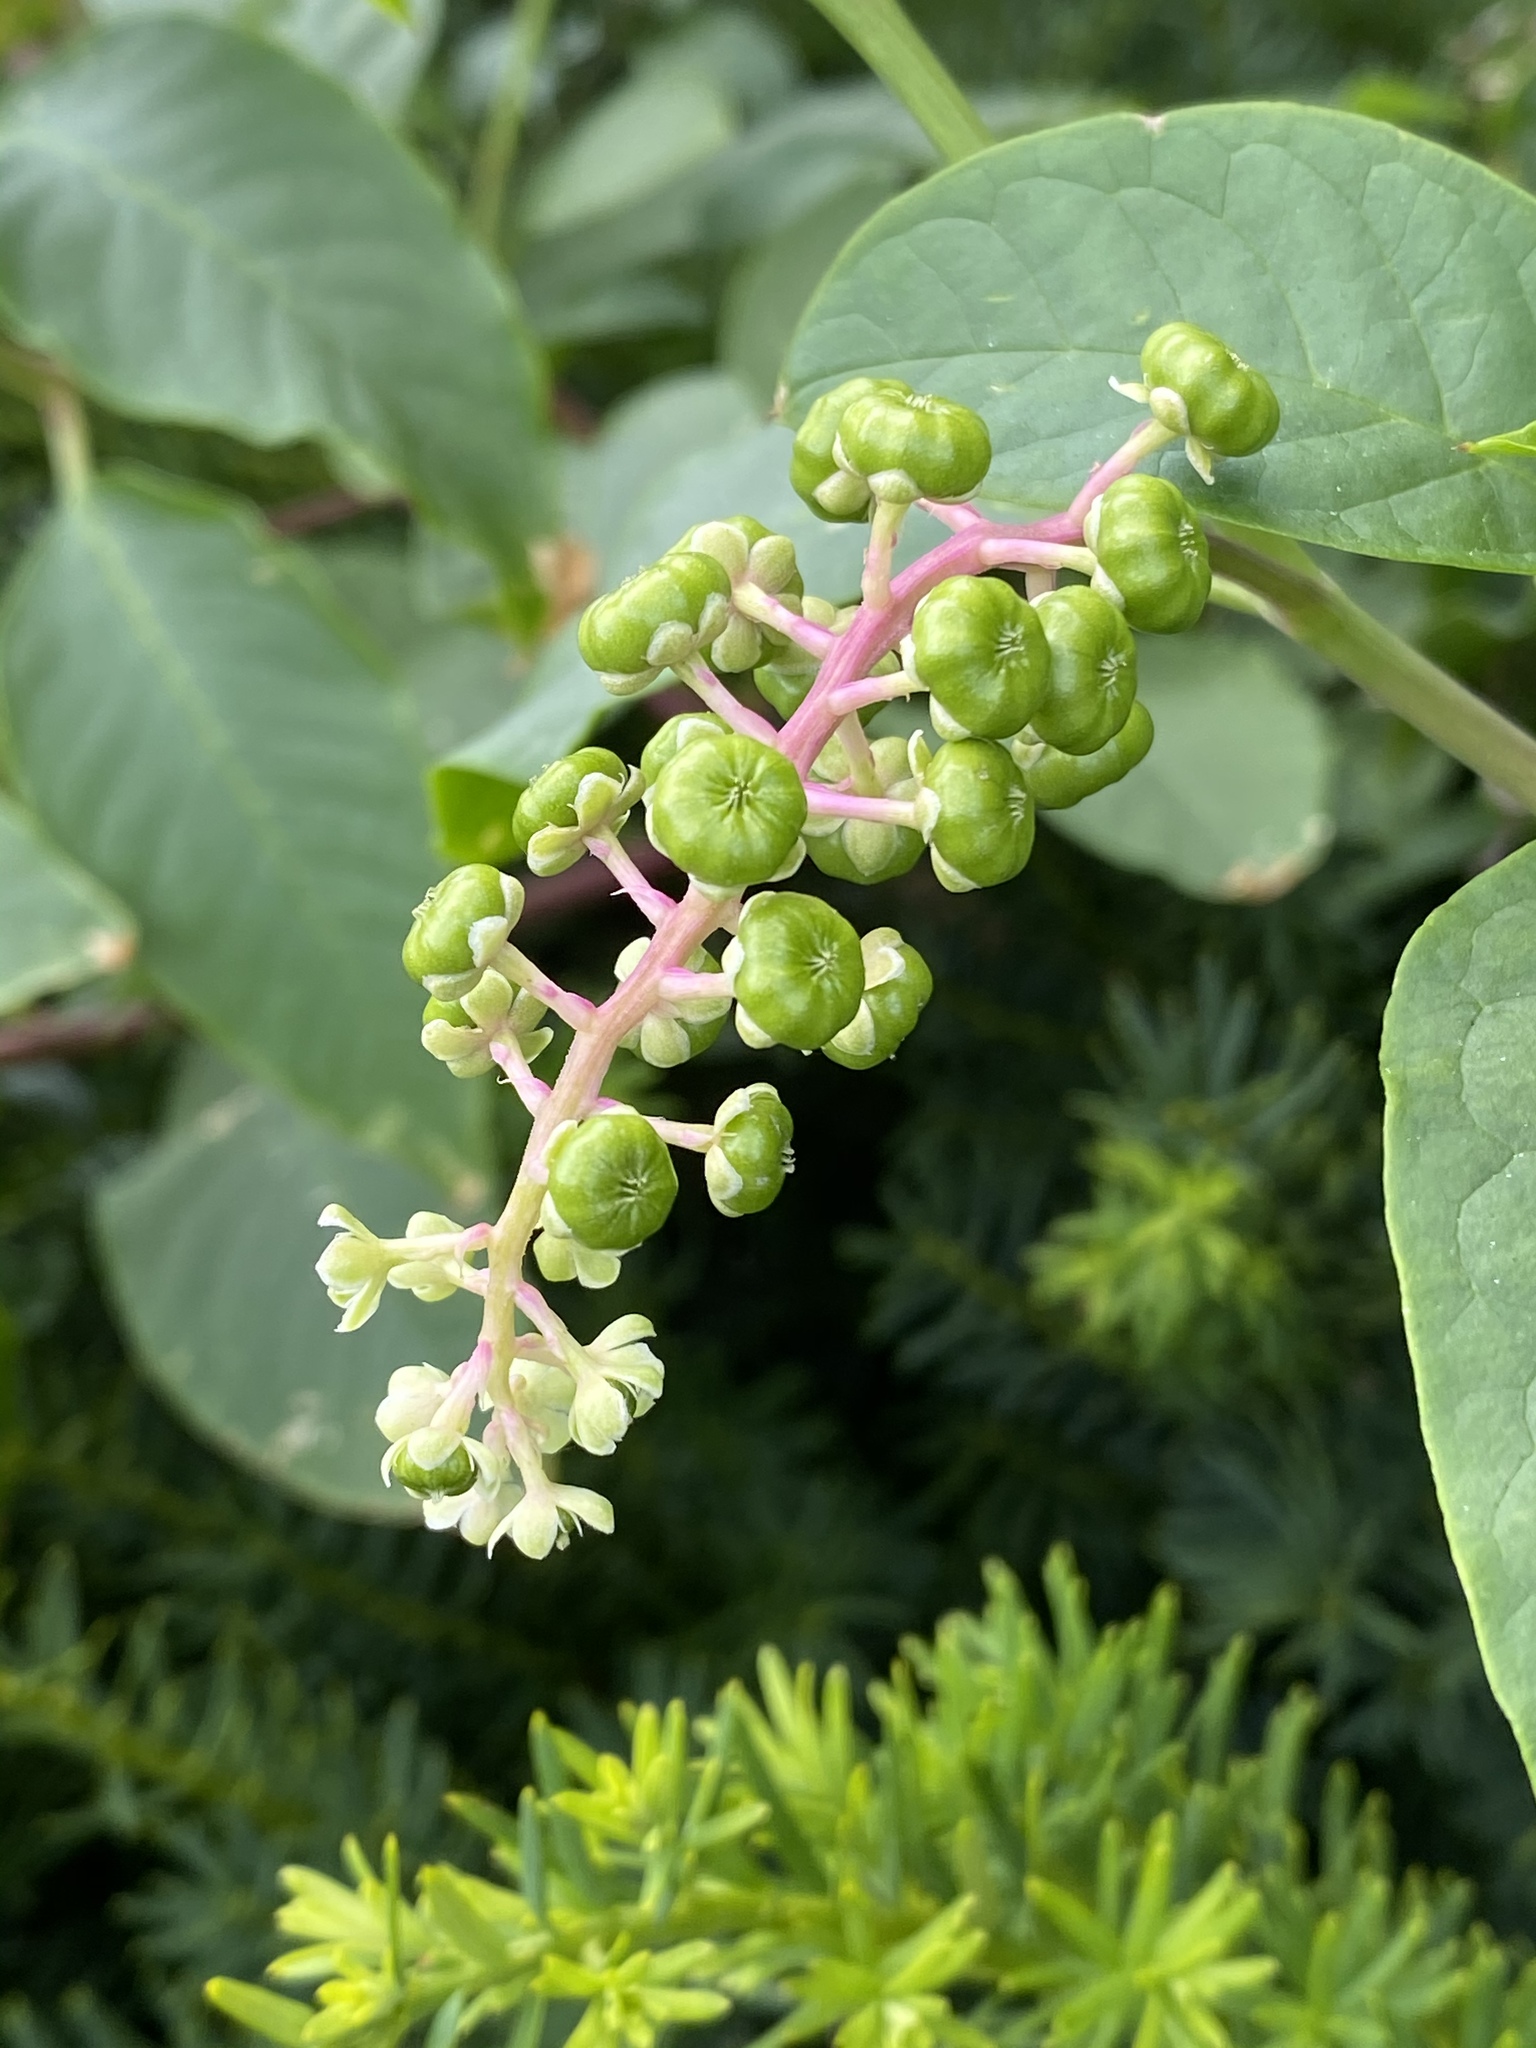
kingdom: Plantae
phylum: Tracheophyta
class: Magnoliopsida
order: Caryophyllales
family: Phytolaccaceae
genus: Phytolacca
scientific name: Phytolacca americana
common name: American pokeweed
